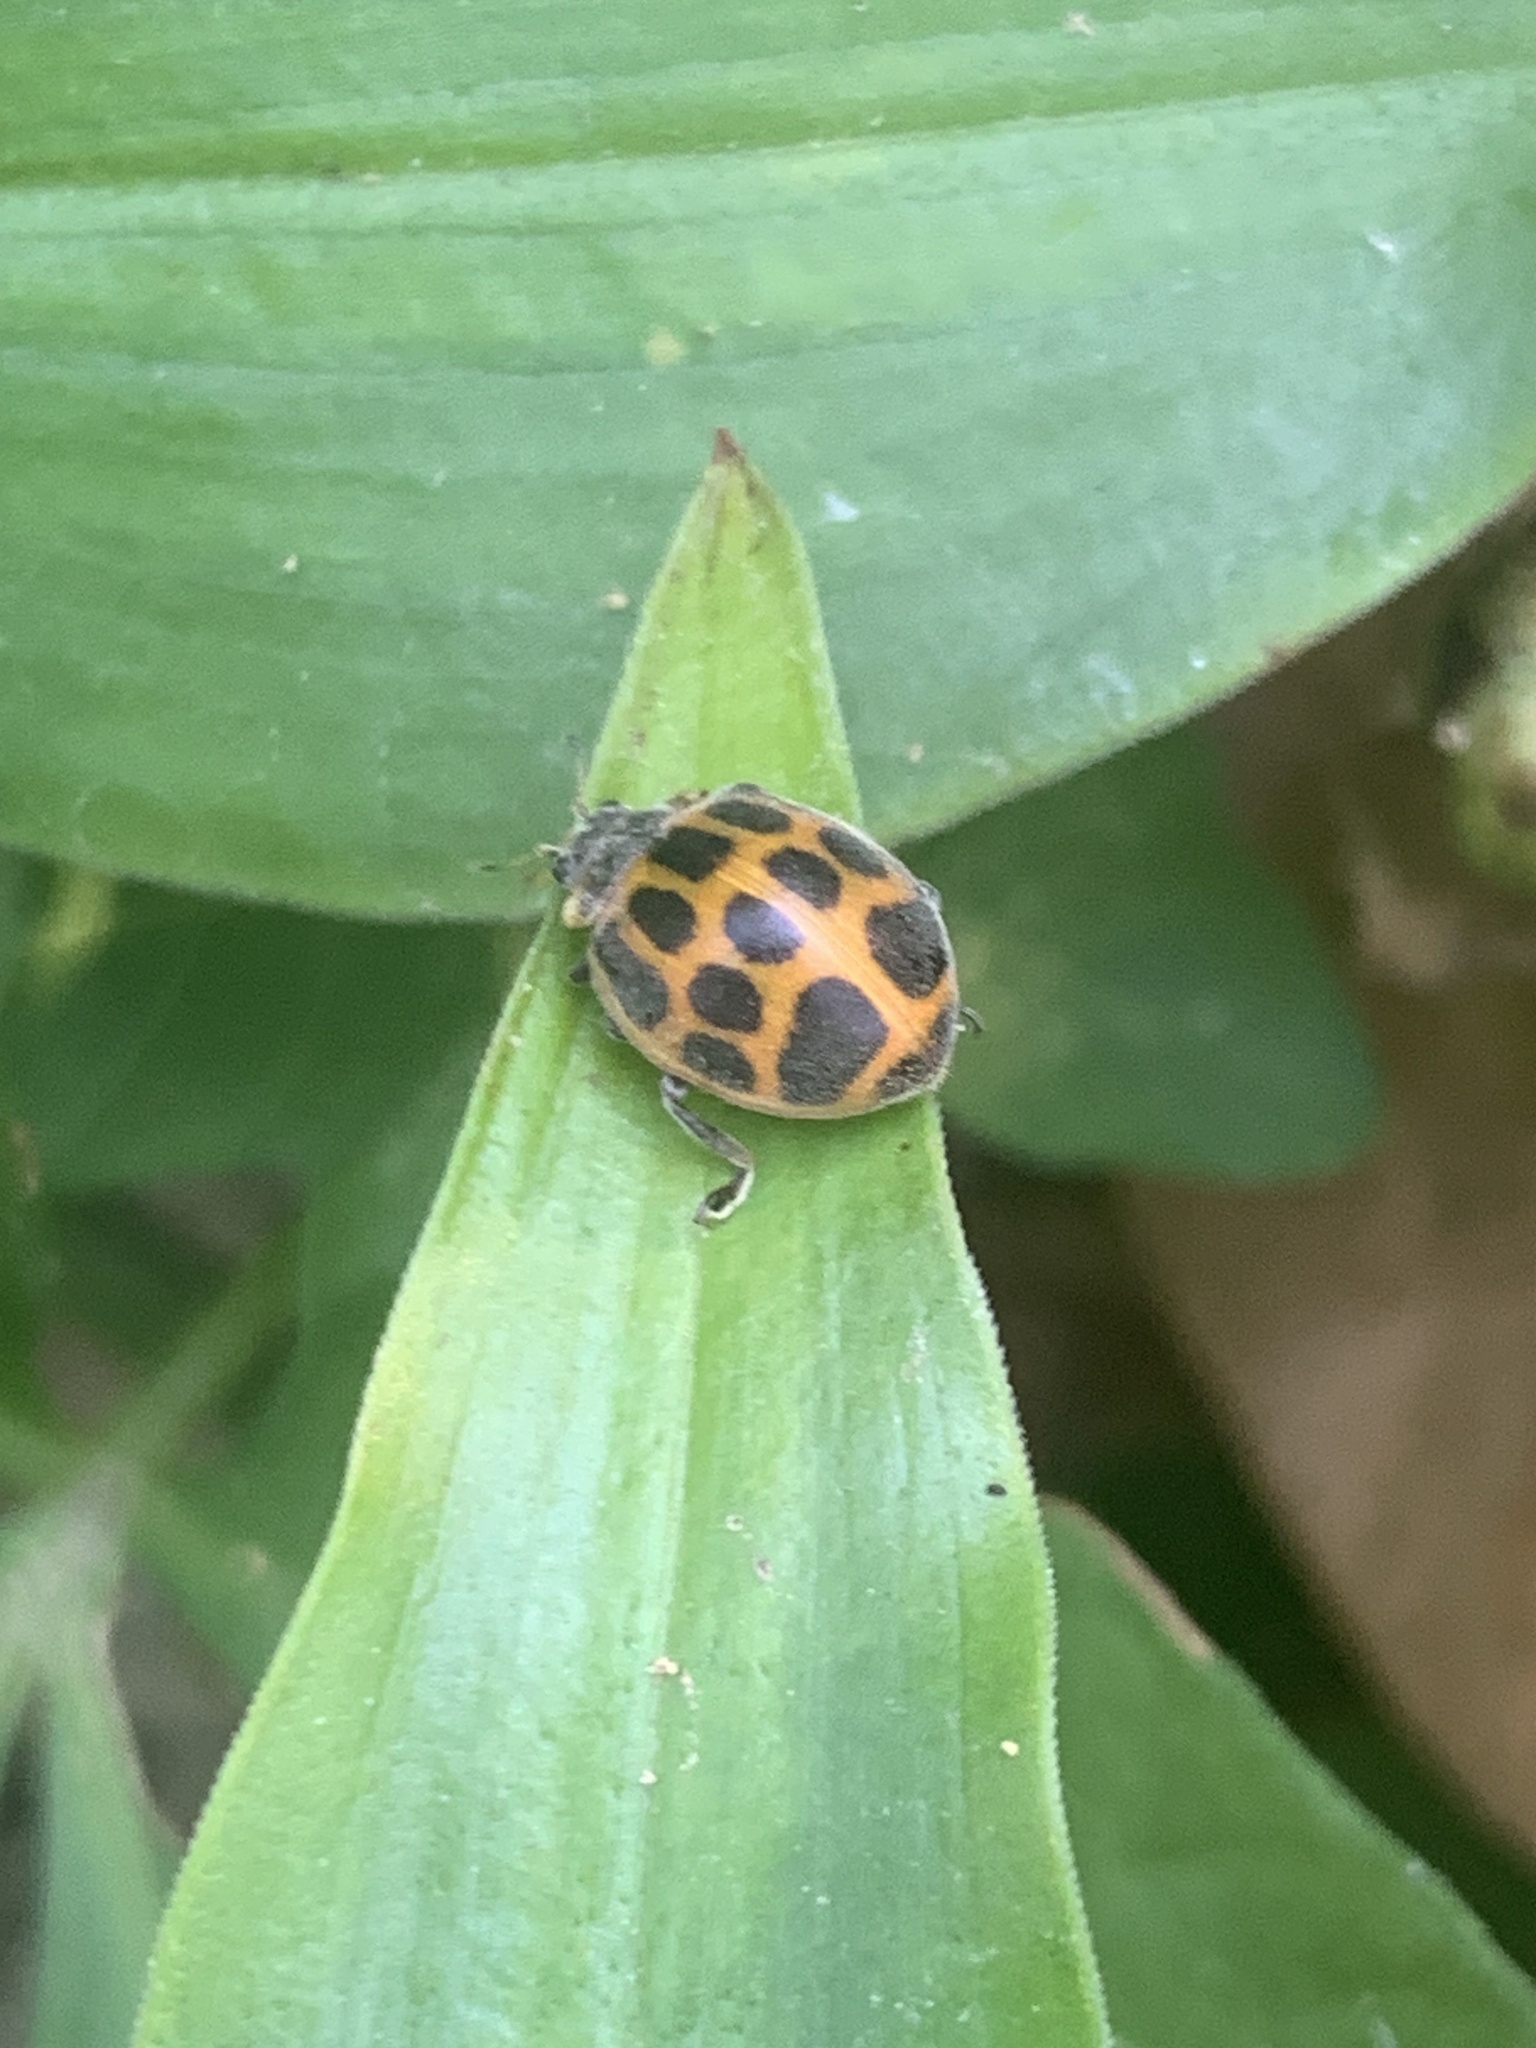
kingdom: Animalia
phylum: Arthropoda
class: Insecta
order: Coleoptera
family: Coccinellidae
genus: Epilachna
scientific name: Epilachna
